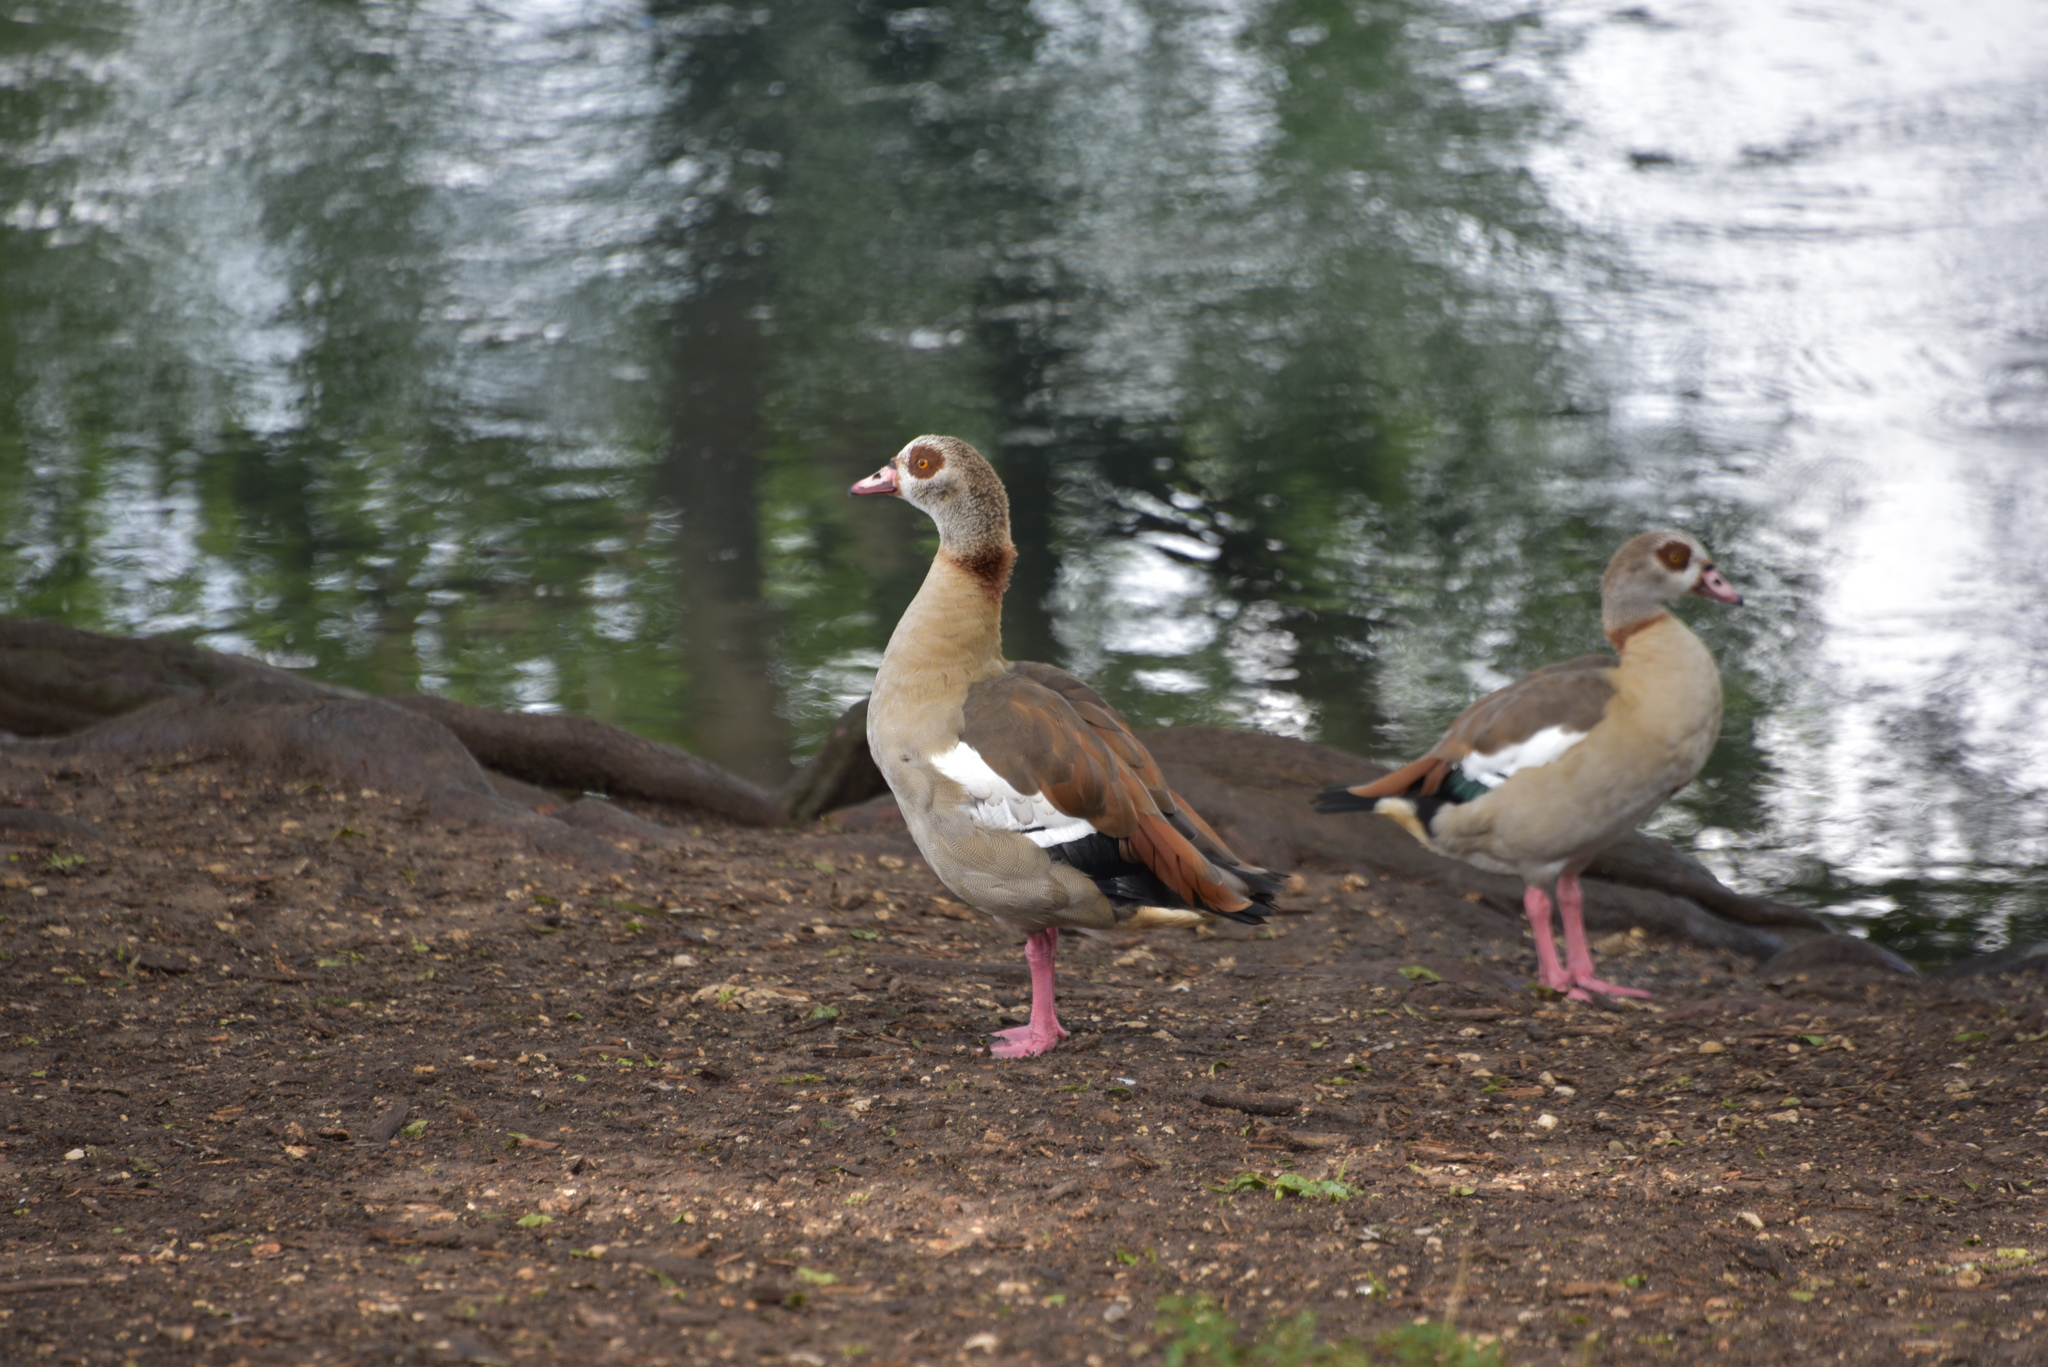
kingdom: Animalia
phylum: Chordata
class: Aves
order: Anseriformes
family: Anatidae
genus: Alopochen
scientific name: Alopochen aegyptiaca
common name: Egyptian goose
